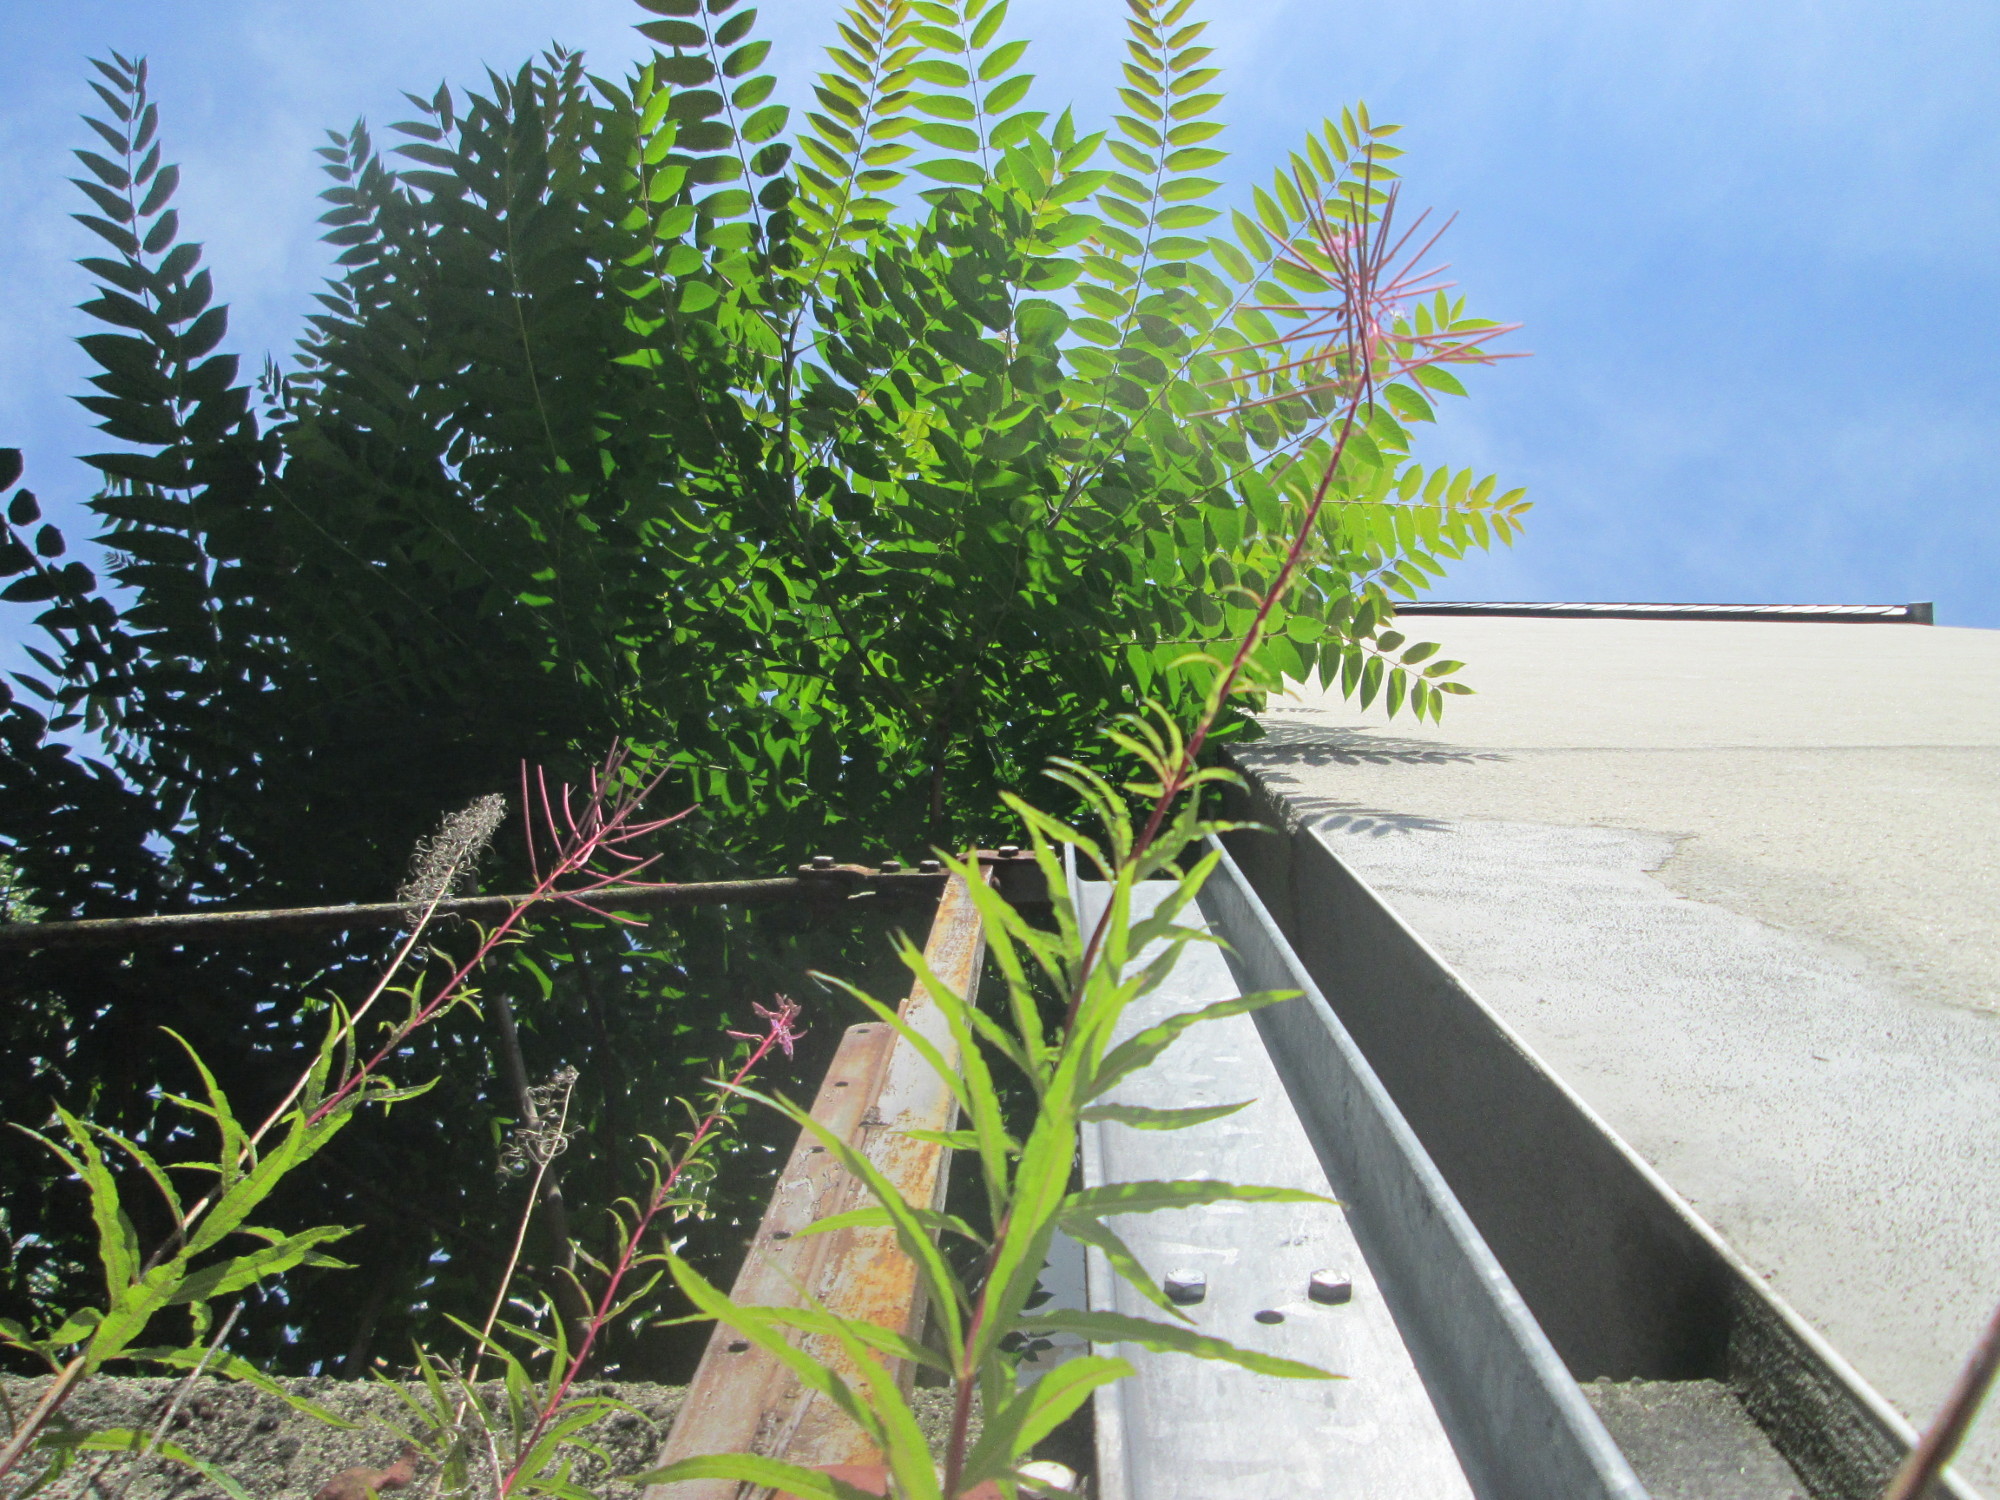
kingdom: Plantae
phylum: Tracheophyta
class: Magnoliopsida
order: Sapindales
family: Simaroubaceae
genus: Ailanthus
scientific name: Ailanthus altissima
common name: Tree-of-heaven
